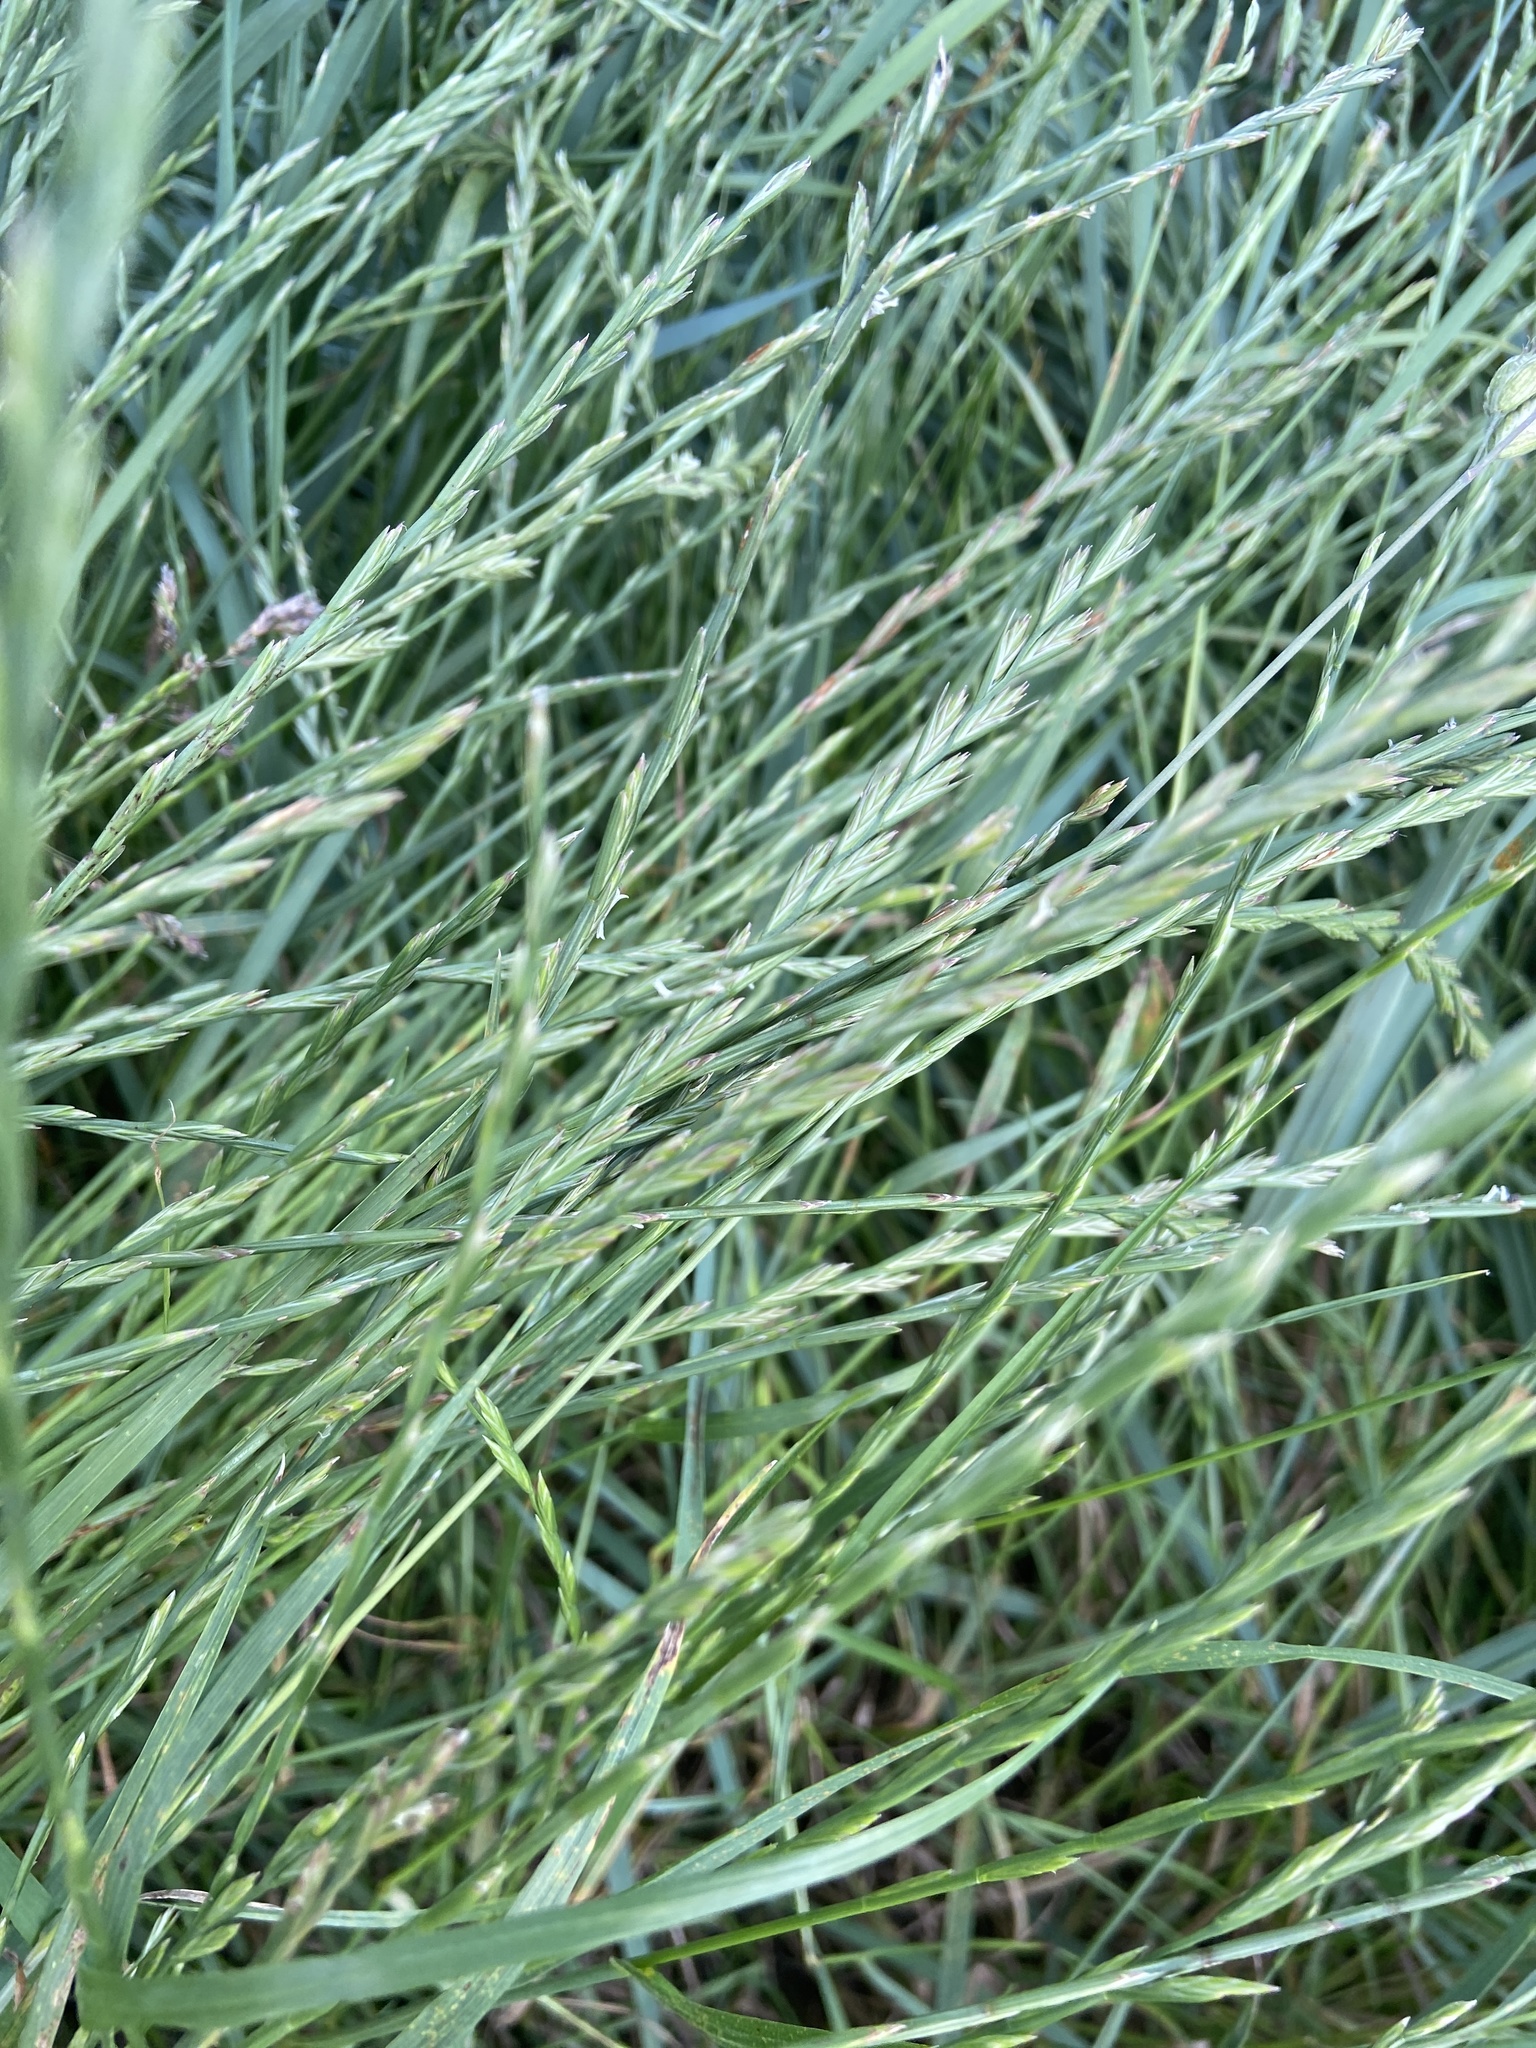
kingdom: Plantae
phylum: Tracheophyta
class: Liliopsida
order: Poales
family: Poaceae
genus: Lolium
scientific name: Lolium perenne
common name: Perennial ryegrass
